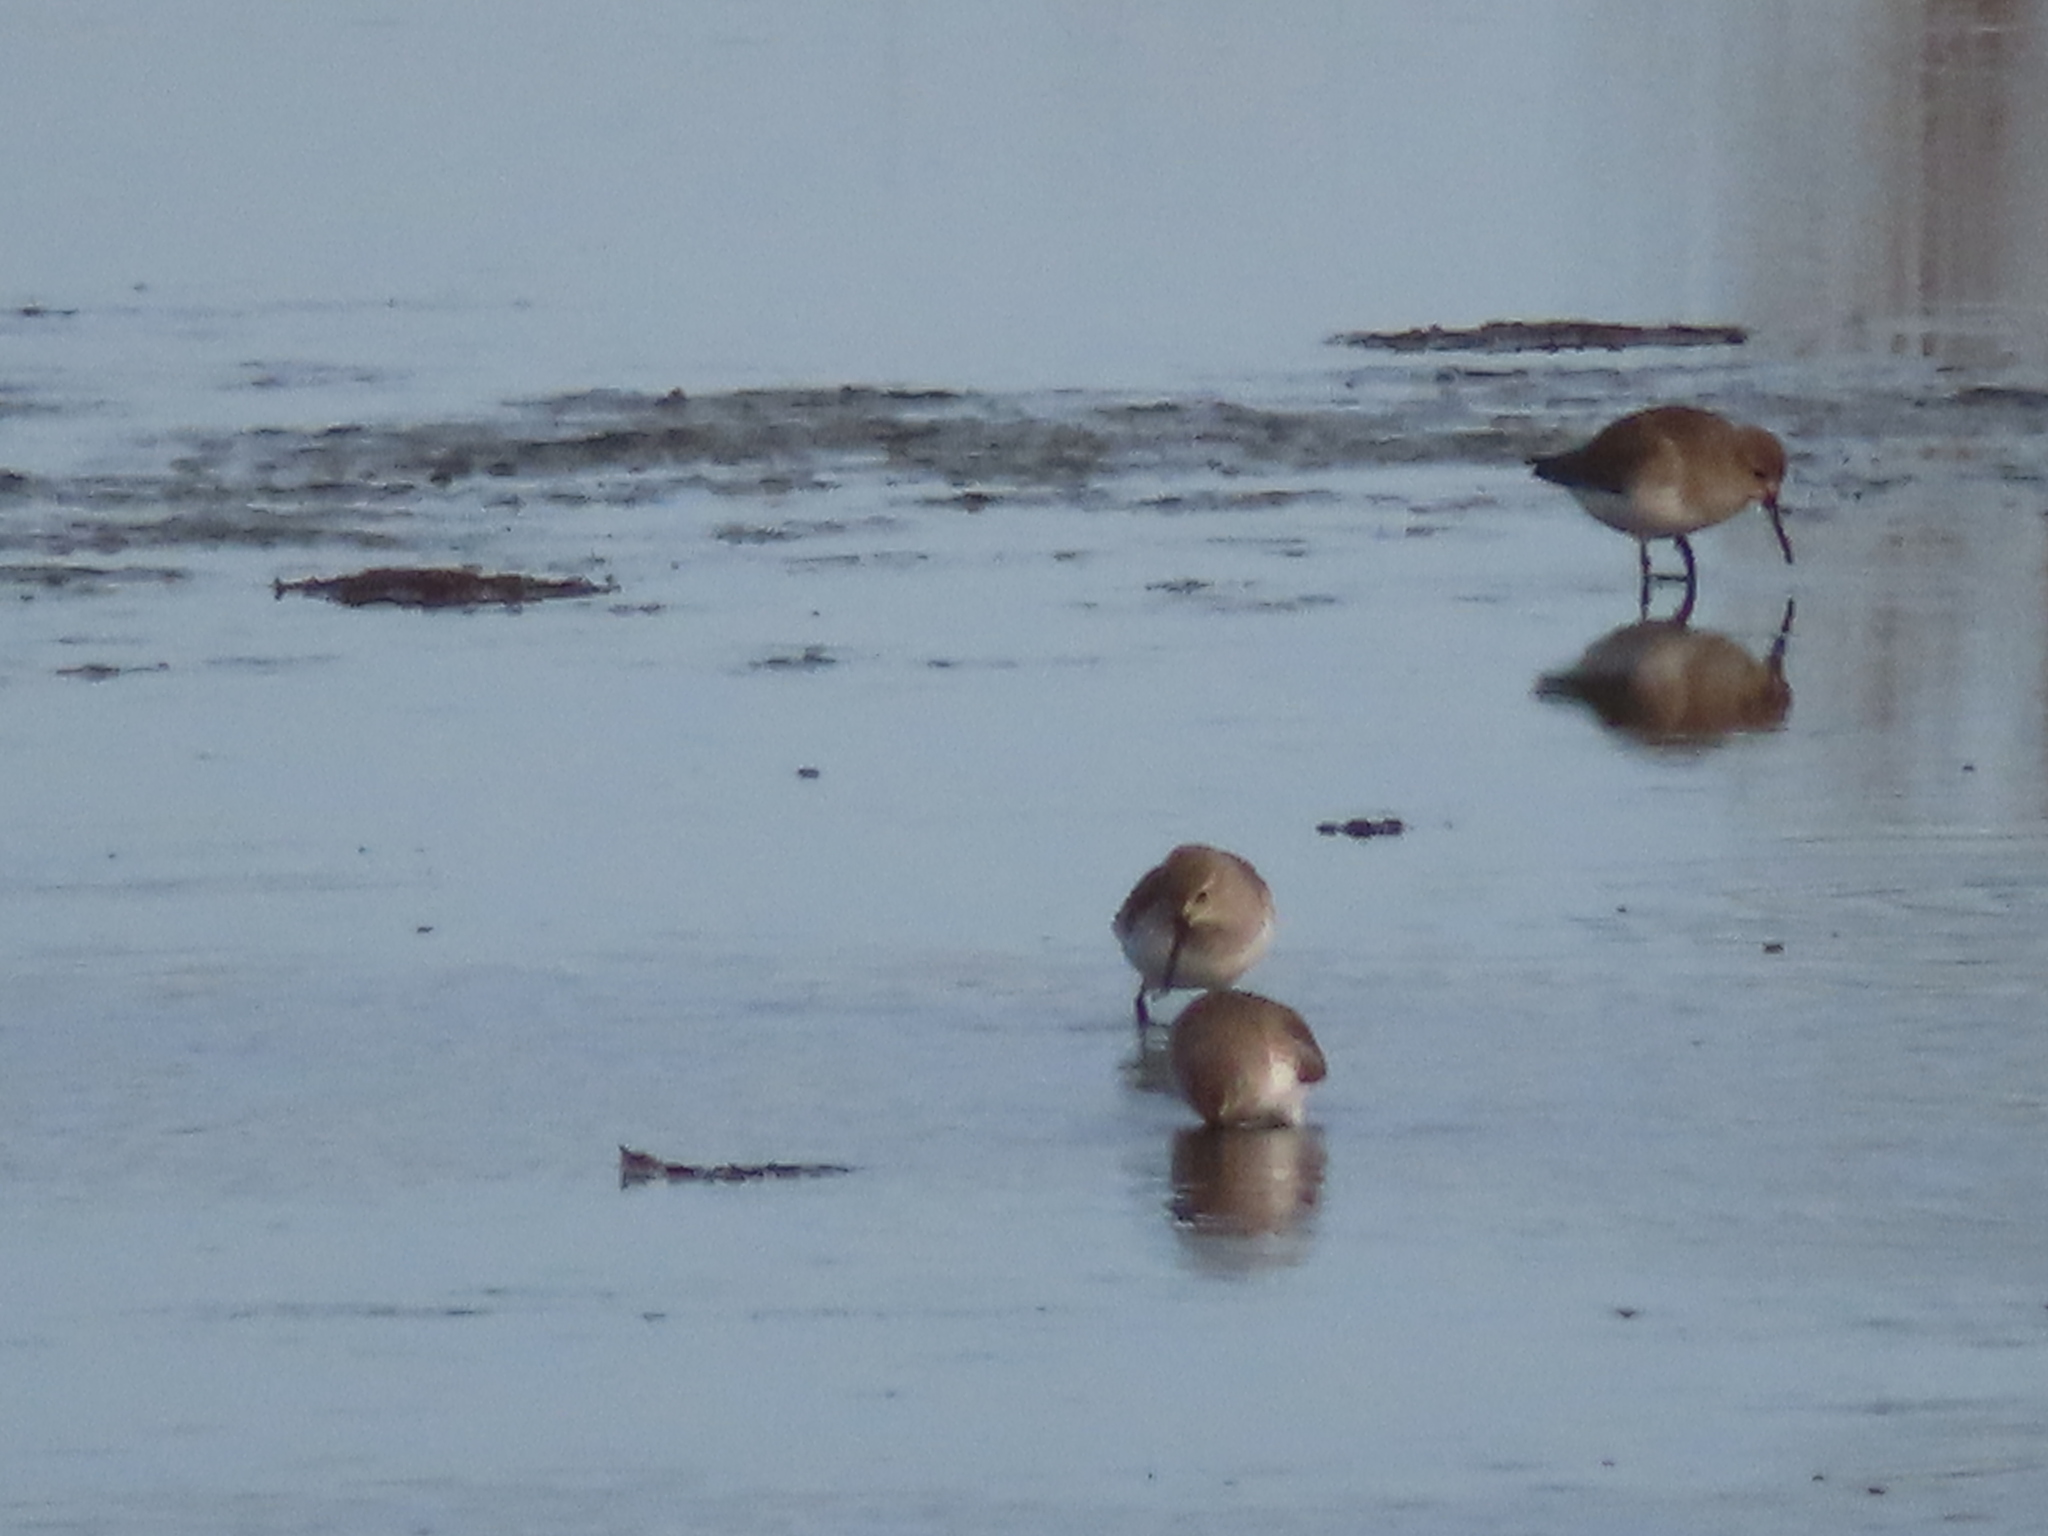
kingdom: Animalia
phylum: Chordata
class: Aves
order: Charadriiformes
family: Scolopacidae
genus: Calidris
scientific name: Calidris alpina
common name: Dunlin
